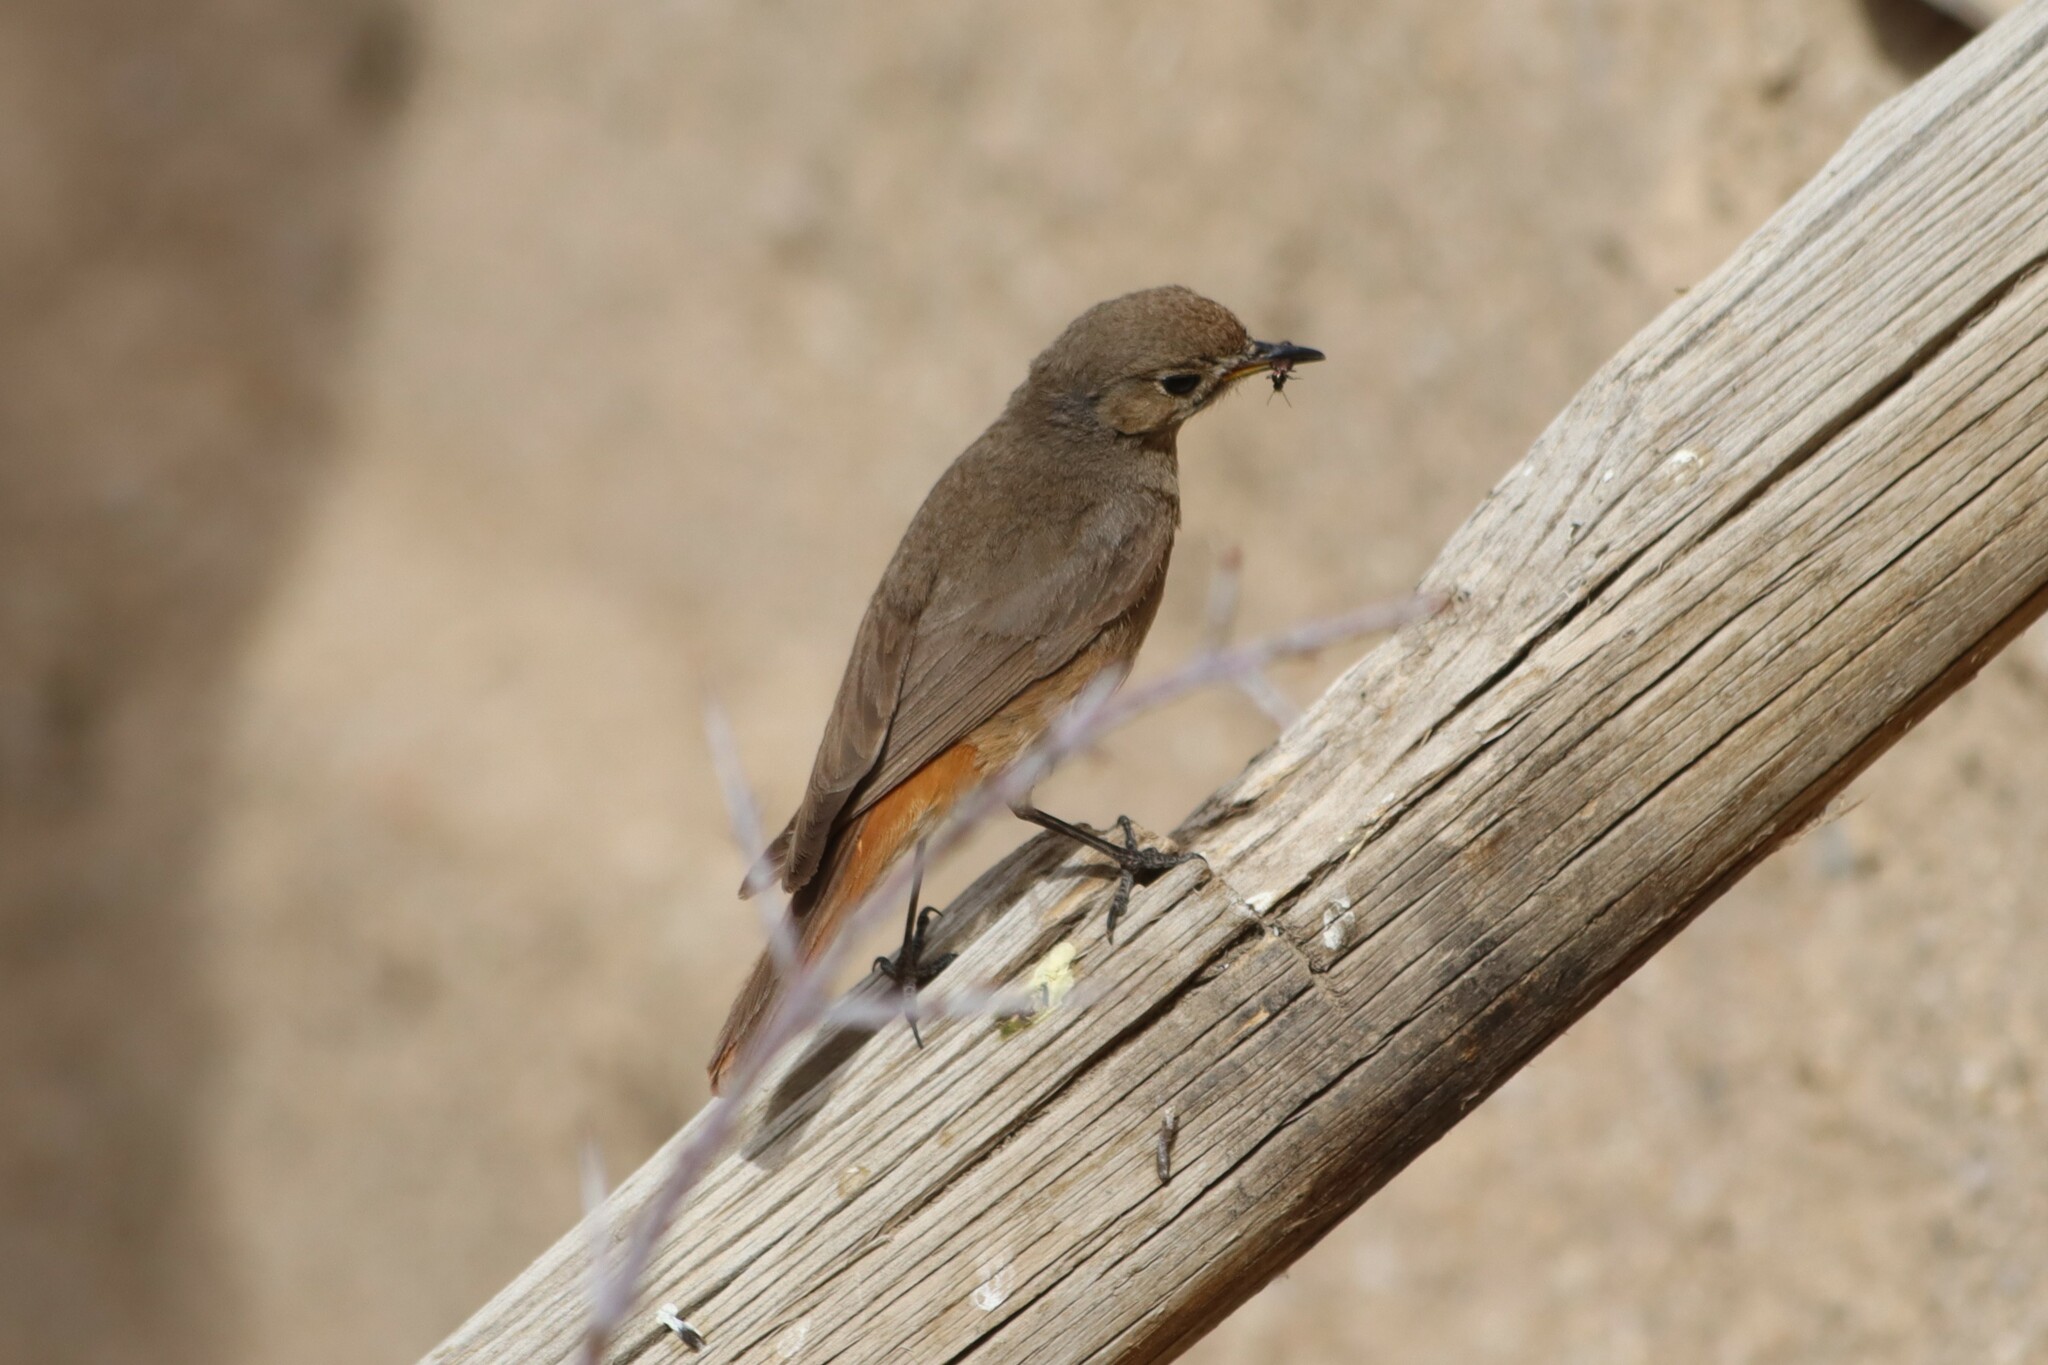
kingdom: Animalia
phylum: Chordata
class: Aves
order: Passeriformes
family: Muscicapidae
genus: Phoenicurus
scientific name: Phoenicurus ochruros
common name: Black redstart
